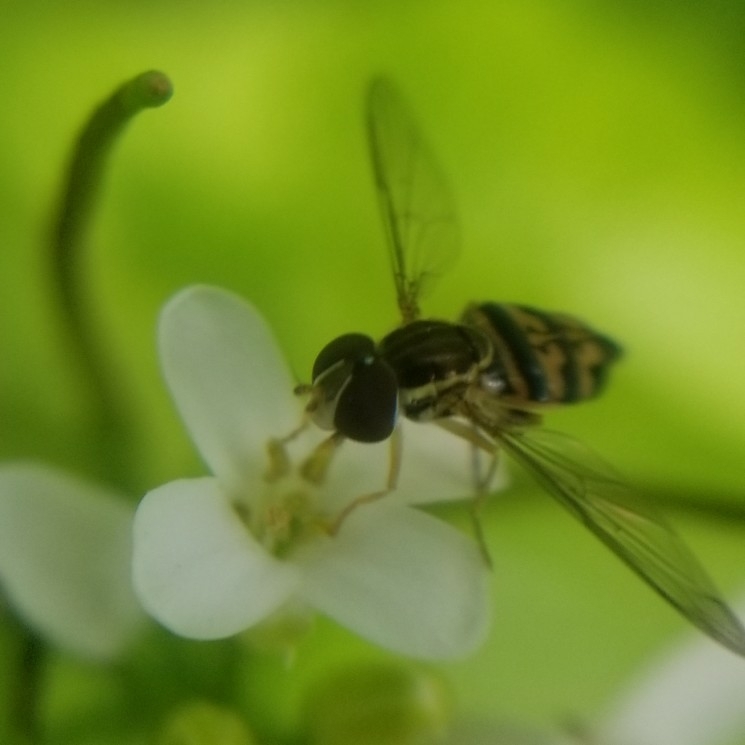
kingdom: Animalia
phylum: Arthropoda
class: Insecta
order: Diptera
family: Syrphidae
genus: Toxomerus
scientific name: Toxomerus geminatus
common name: Eastern calligrapher
